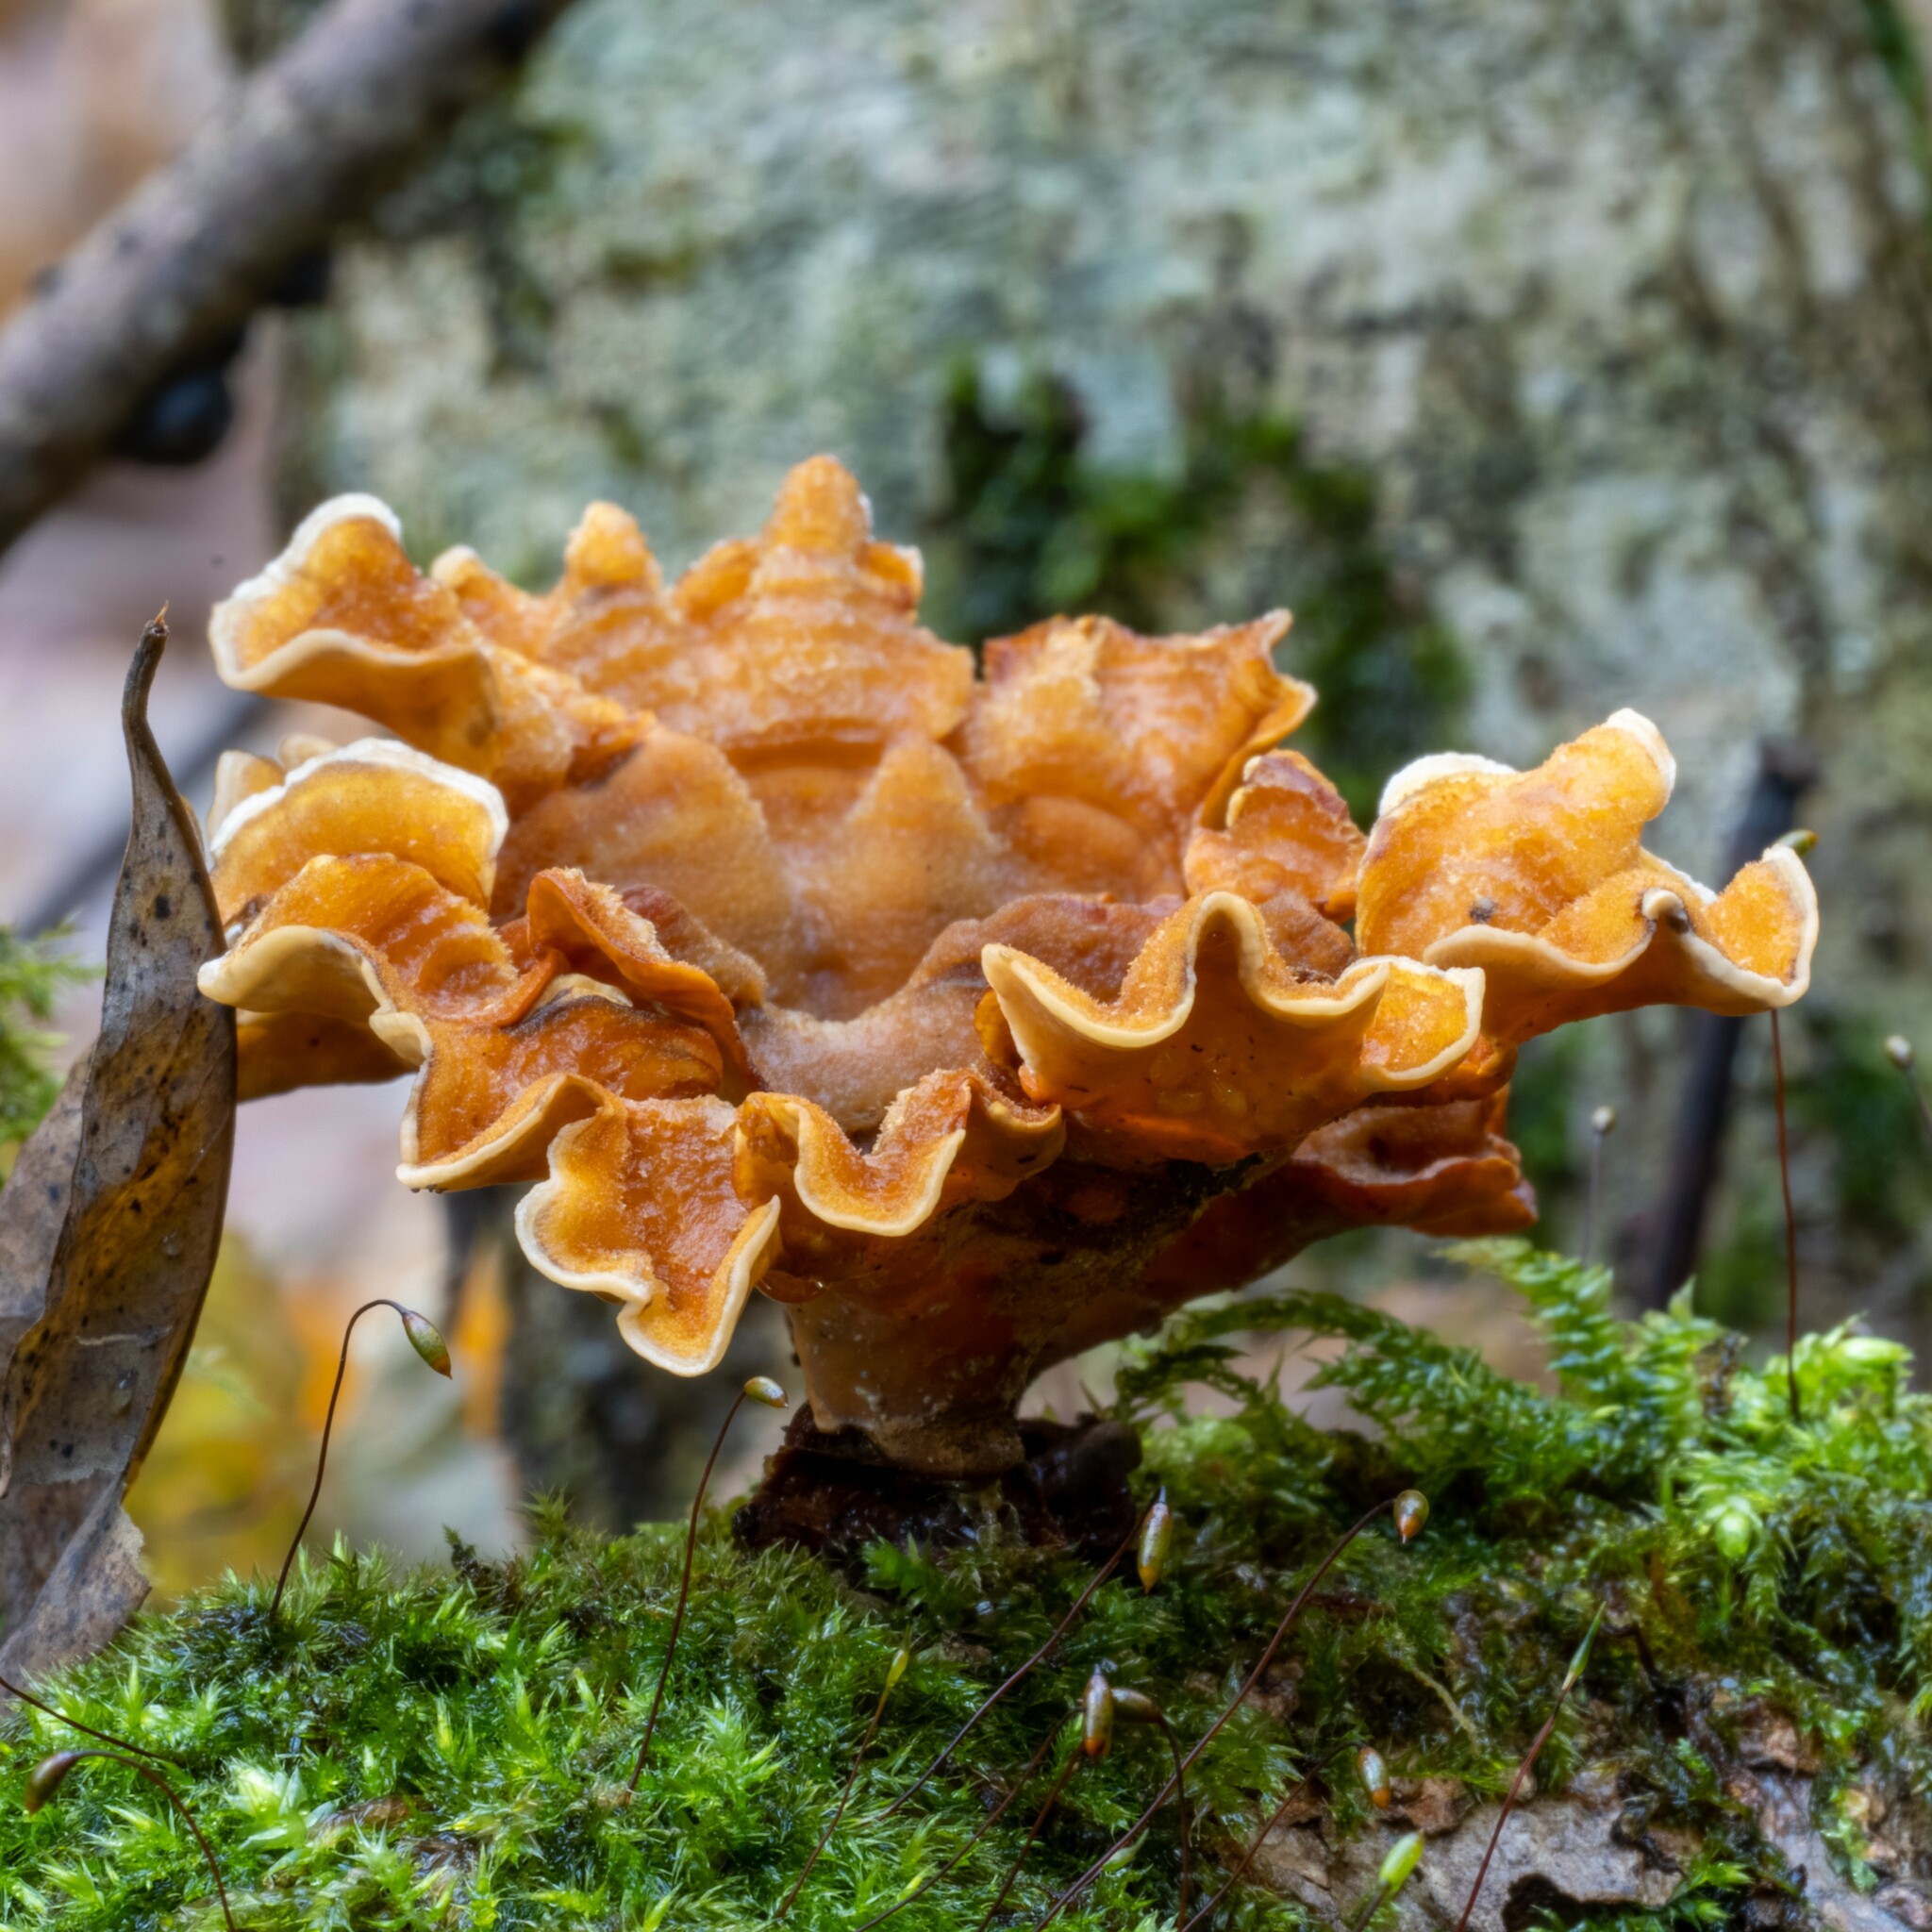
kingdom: Fungi
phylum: Basidiomycota
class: Agaricomycetes
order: Russulales
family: Stereaceae
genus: Stereum
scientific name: Stereum hirsutum
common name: Hairy curtain crust
